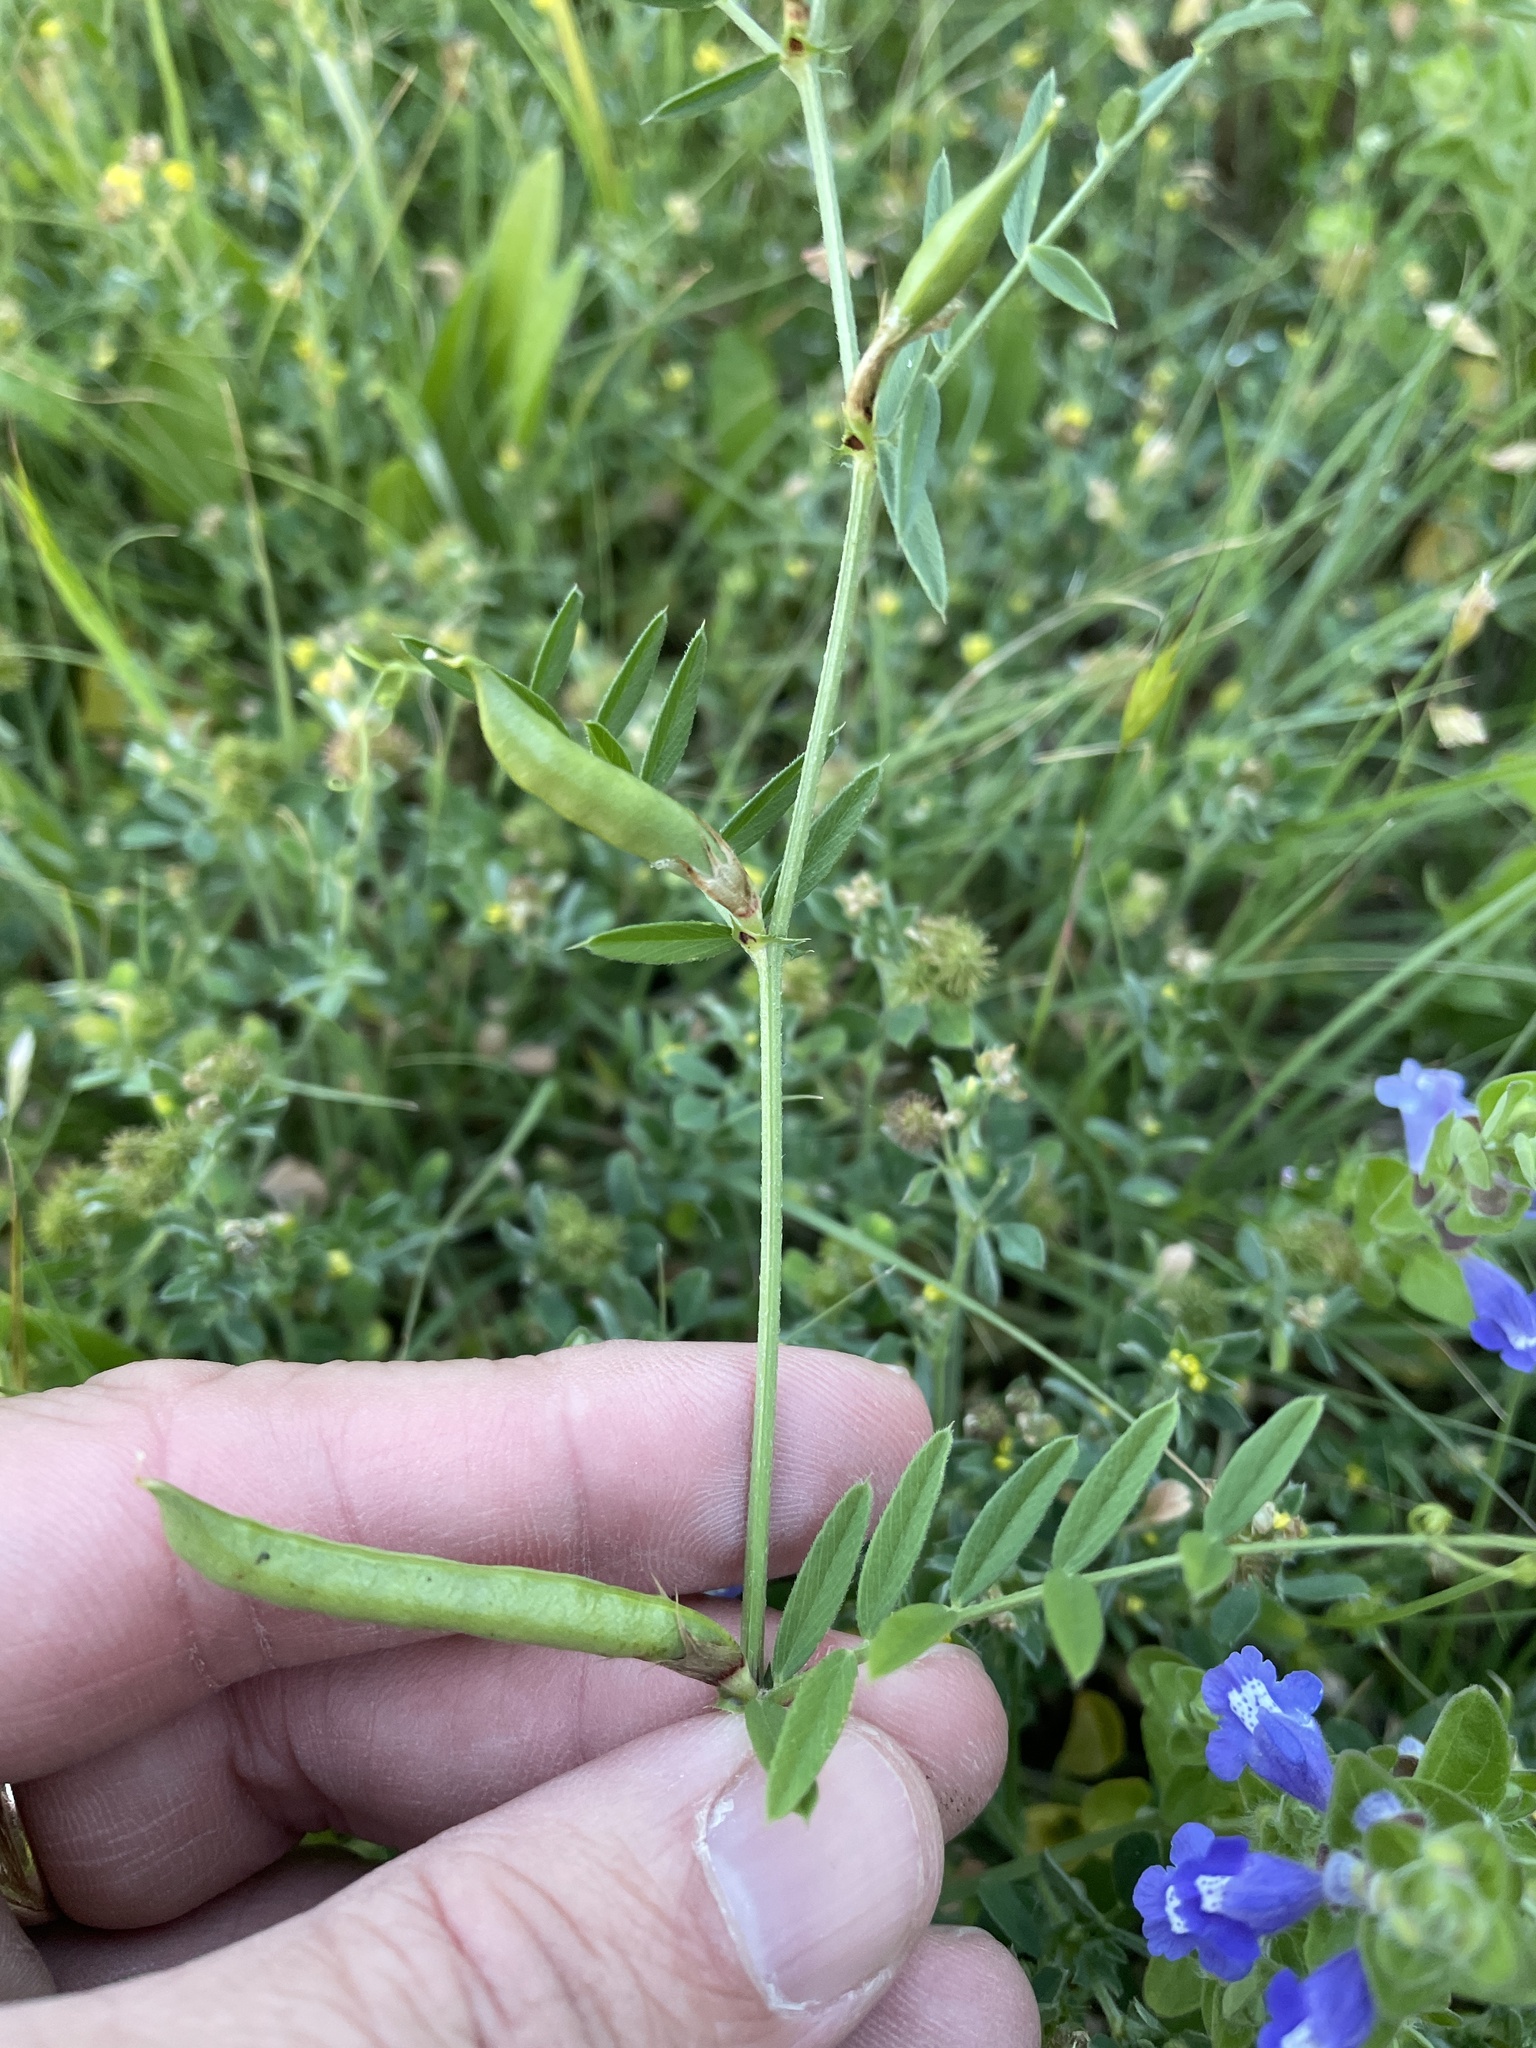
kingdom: Plantae
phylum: Tracheophyta
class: Magnoliopsida
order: Fabales
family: Fabaceae
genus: Vicia
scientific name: Vicia sativa
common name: Garden vetch
